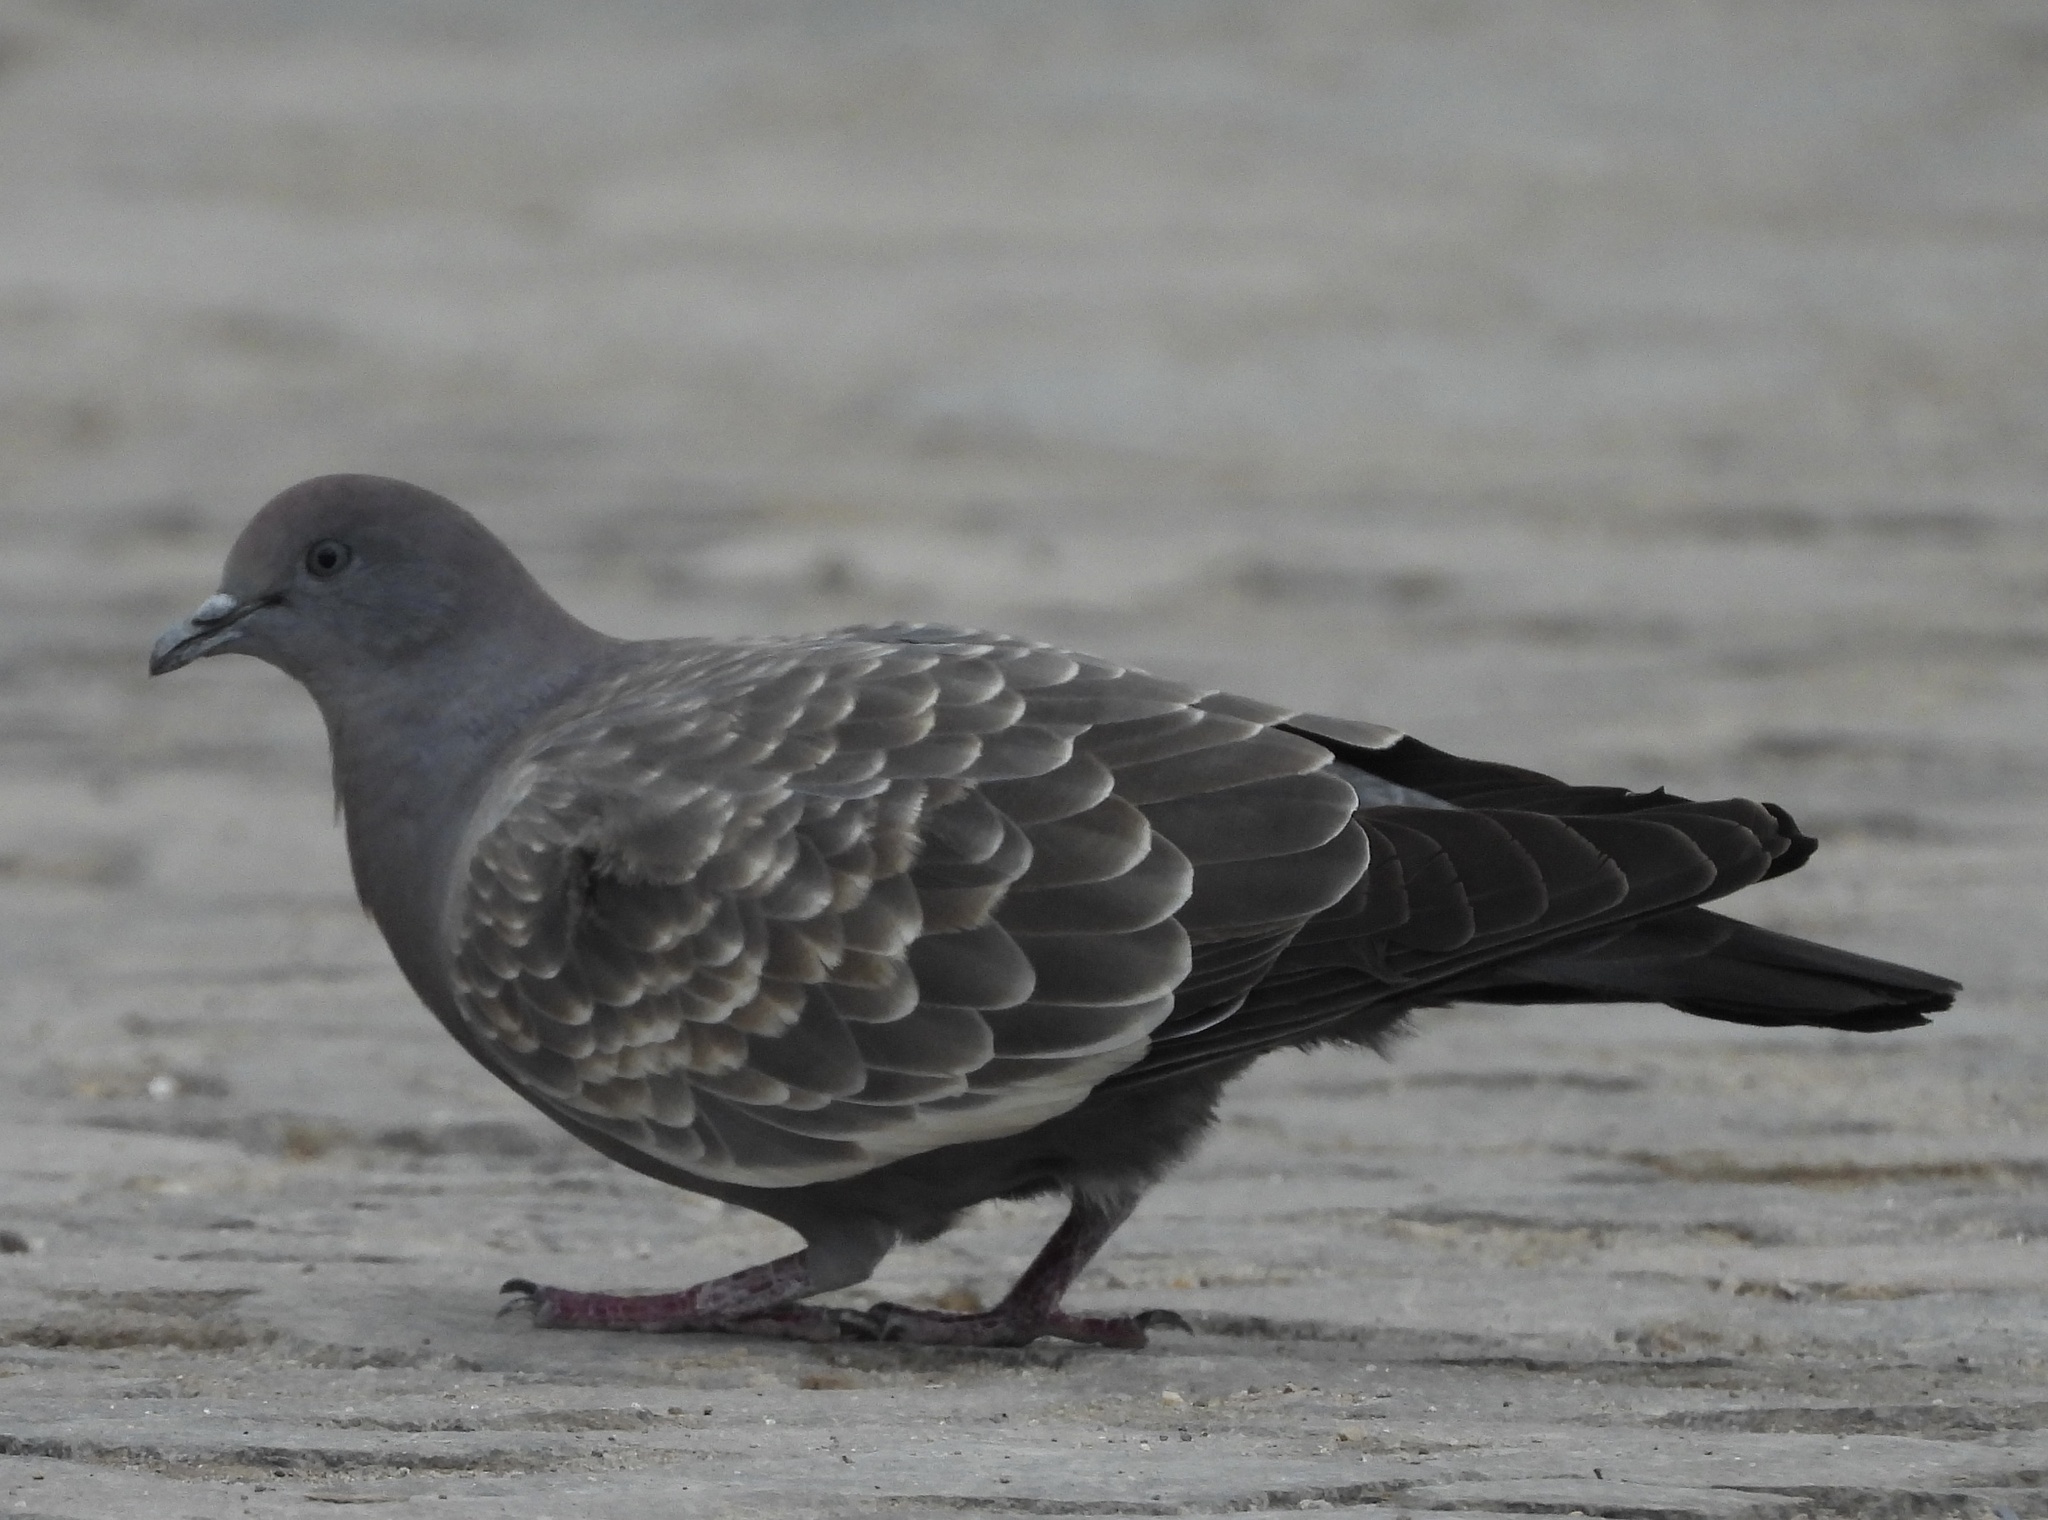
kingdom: Animalia
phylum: Chordata
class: Aves
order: Columbiformes
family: Columbidae
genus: Patagioenas
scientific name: Patagioenas maculosa
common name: Spot-winged pigeon
